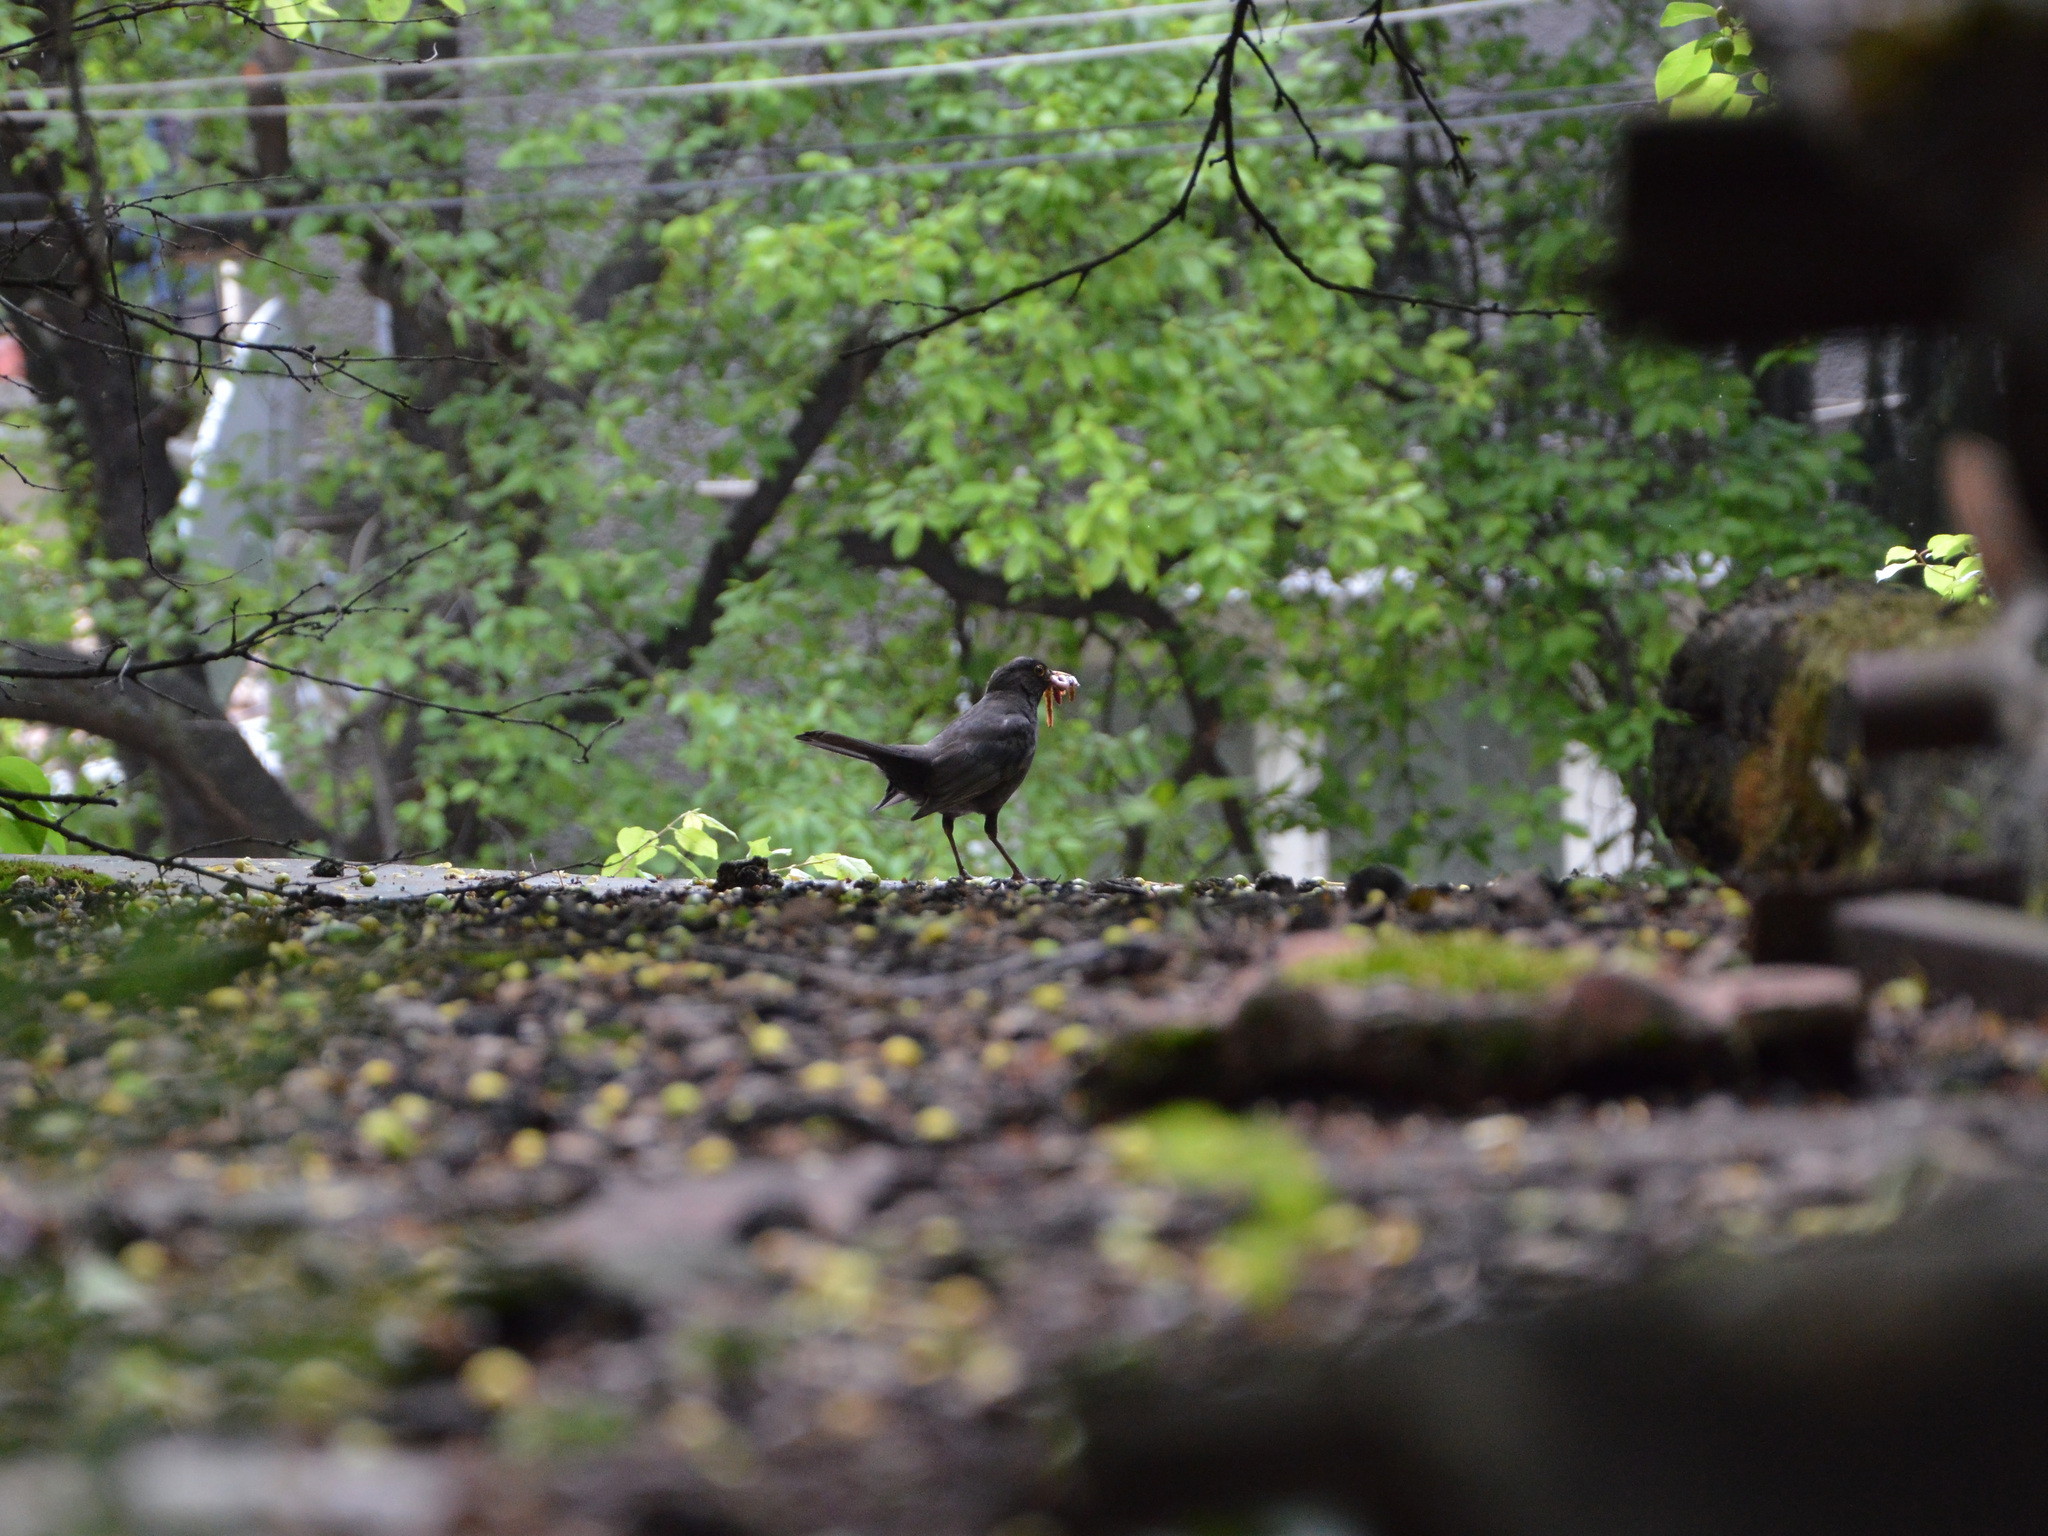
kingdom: Animalia
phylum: Chordata
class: Aves
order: Passeriformes
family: Turdidae
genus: Turdus
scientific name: Turdus merula
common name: Common blackbird
